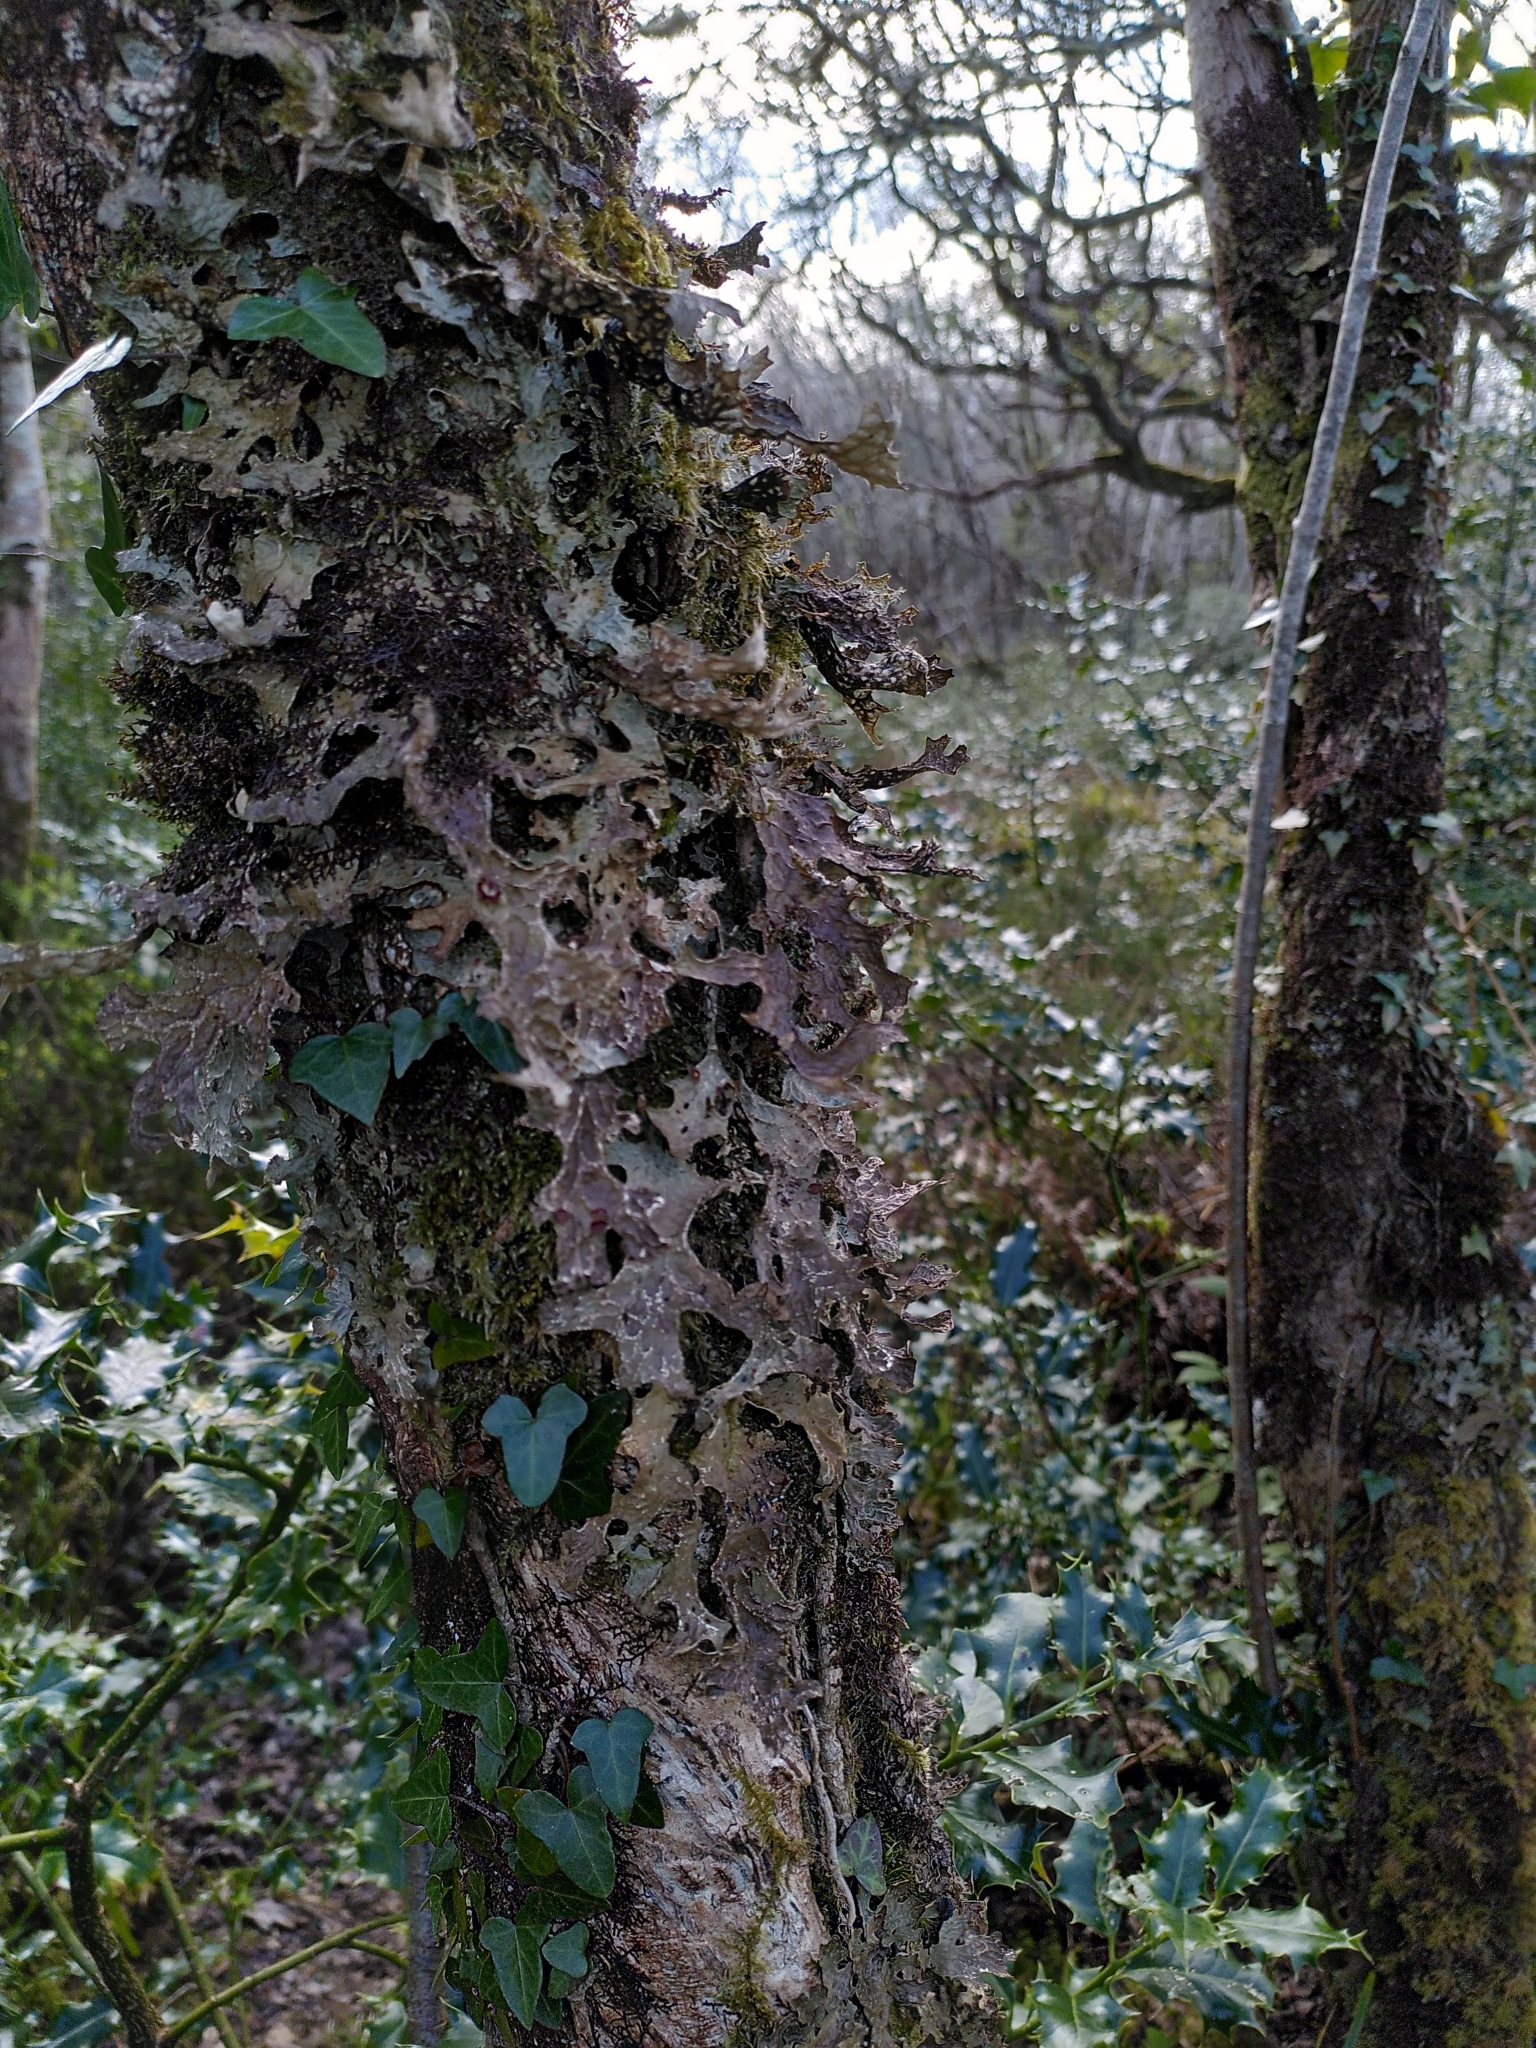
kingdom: Fungi
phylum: Ascomycota
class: Lecanoromycetes
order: Peltigerales
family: Lobariaceae
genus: Lobaria
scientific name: Lobaria pulmonaria
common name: Lungwort
